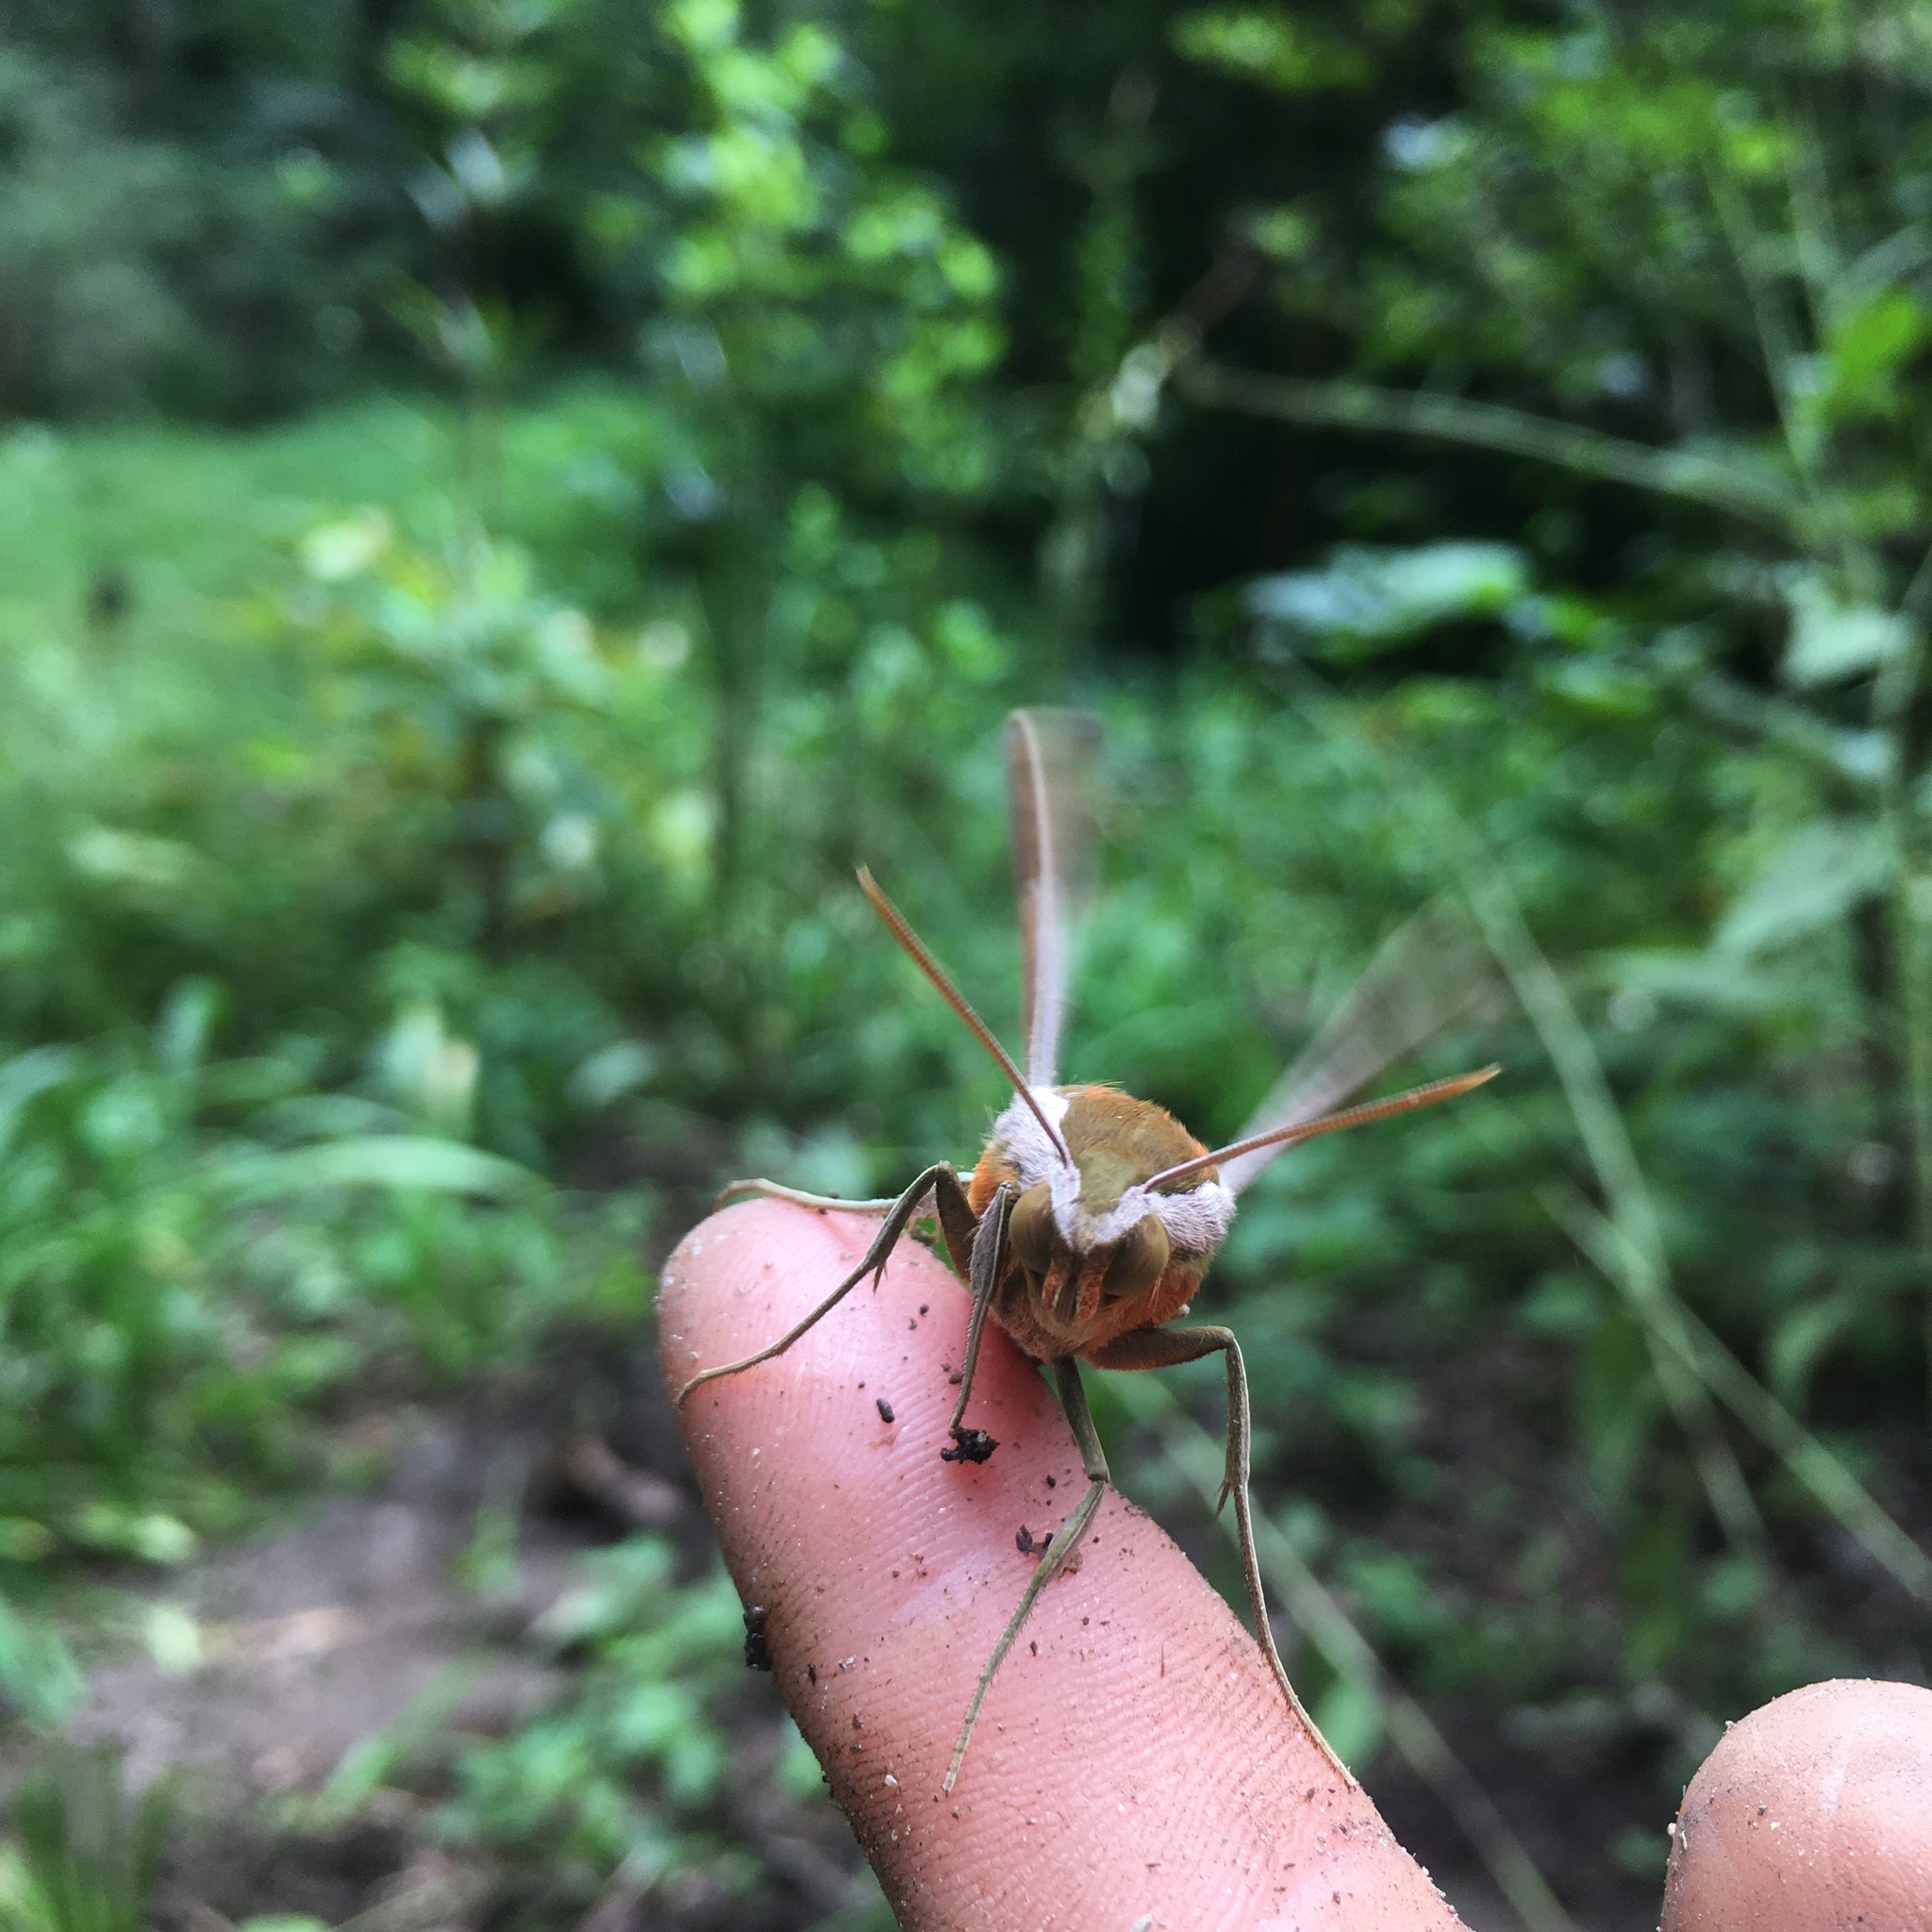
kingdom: Animalia
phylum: Arthropoda
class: Insecta
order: Lepidoptera
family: Sphingidae
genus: Xylophanes
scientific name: Xylophanes tersa
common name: Tersa sphinx
